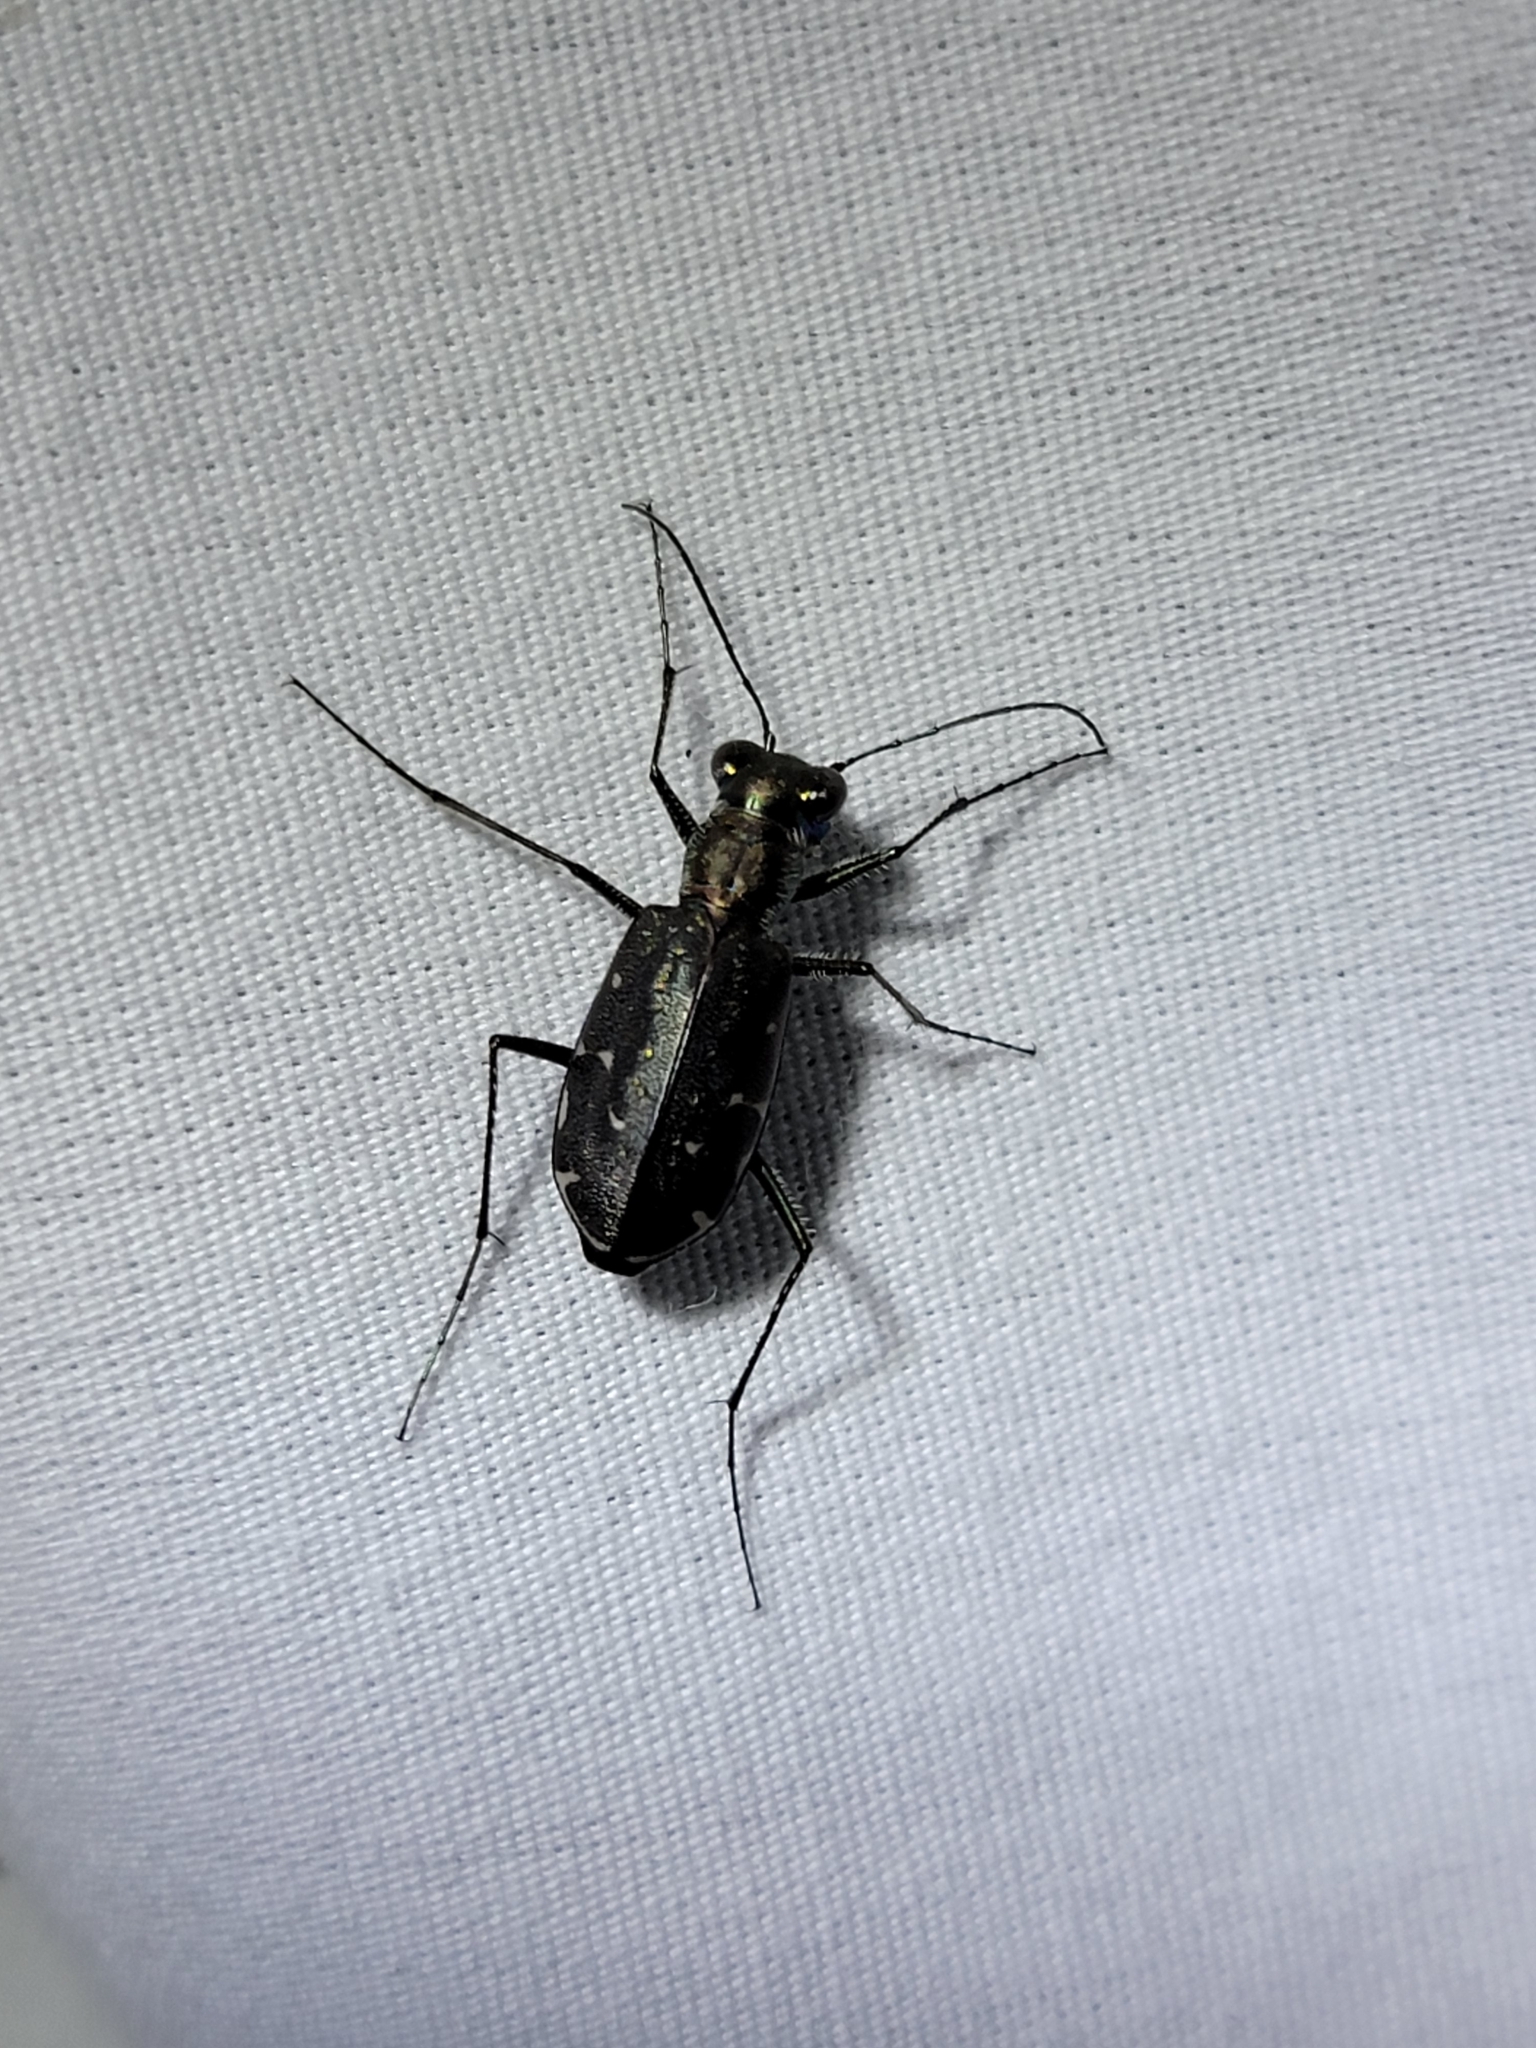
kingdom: Animalia
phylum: Arthropoda
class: Insecta
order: Coleoptera
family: Carabidae
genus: Cicindela
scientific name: Cicindela punctulata
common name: Punctured tiger beetle
